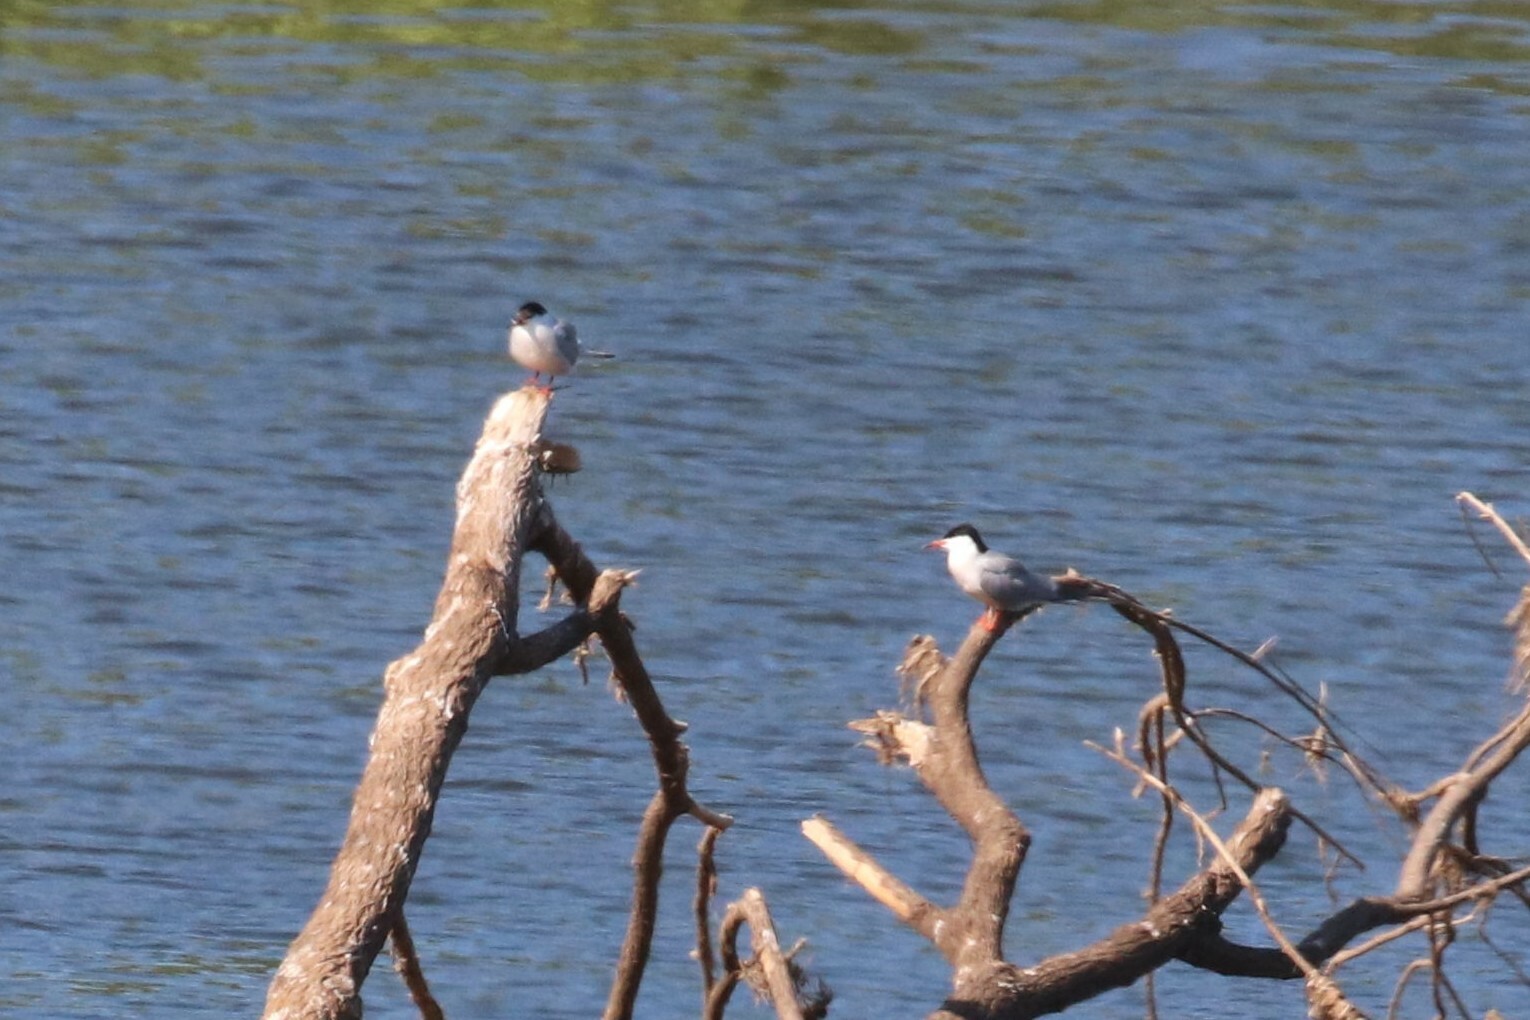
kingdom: Animalia
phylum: Chordata
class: Aves
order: Charadriiformes
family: Laridae
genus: Sterna
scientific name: Sterna hirundo
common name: Common tern
